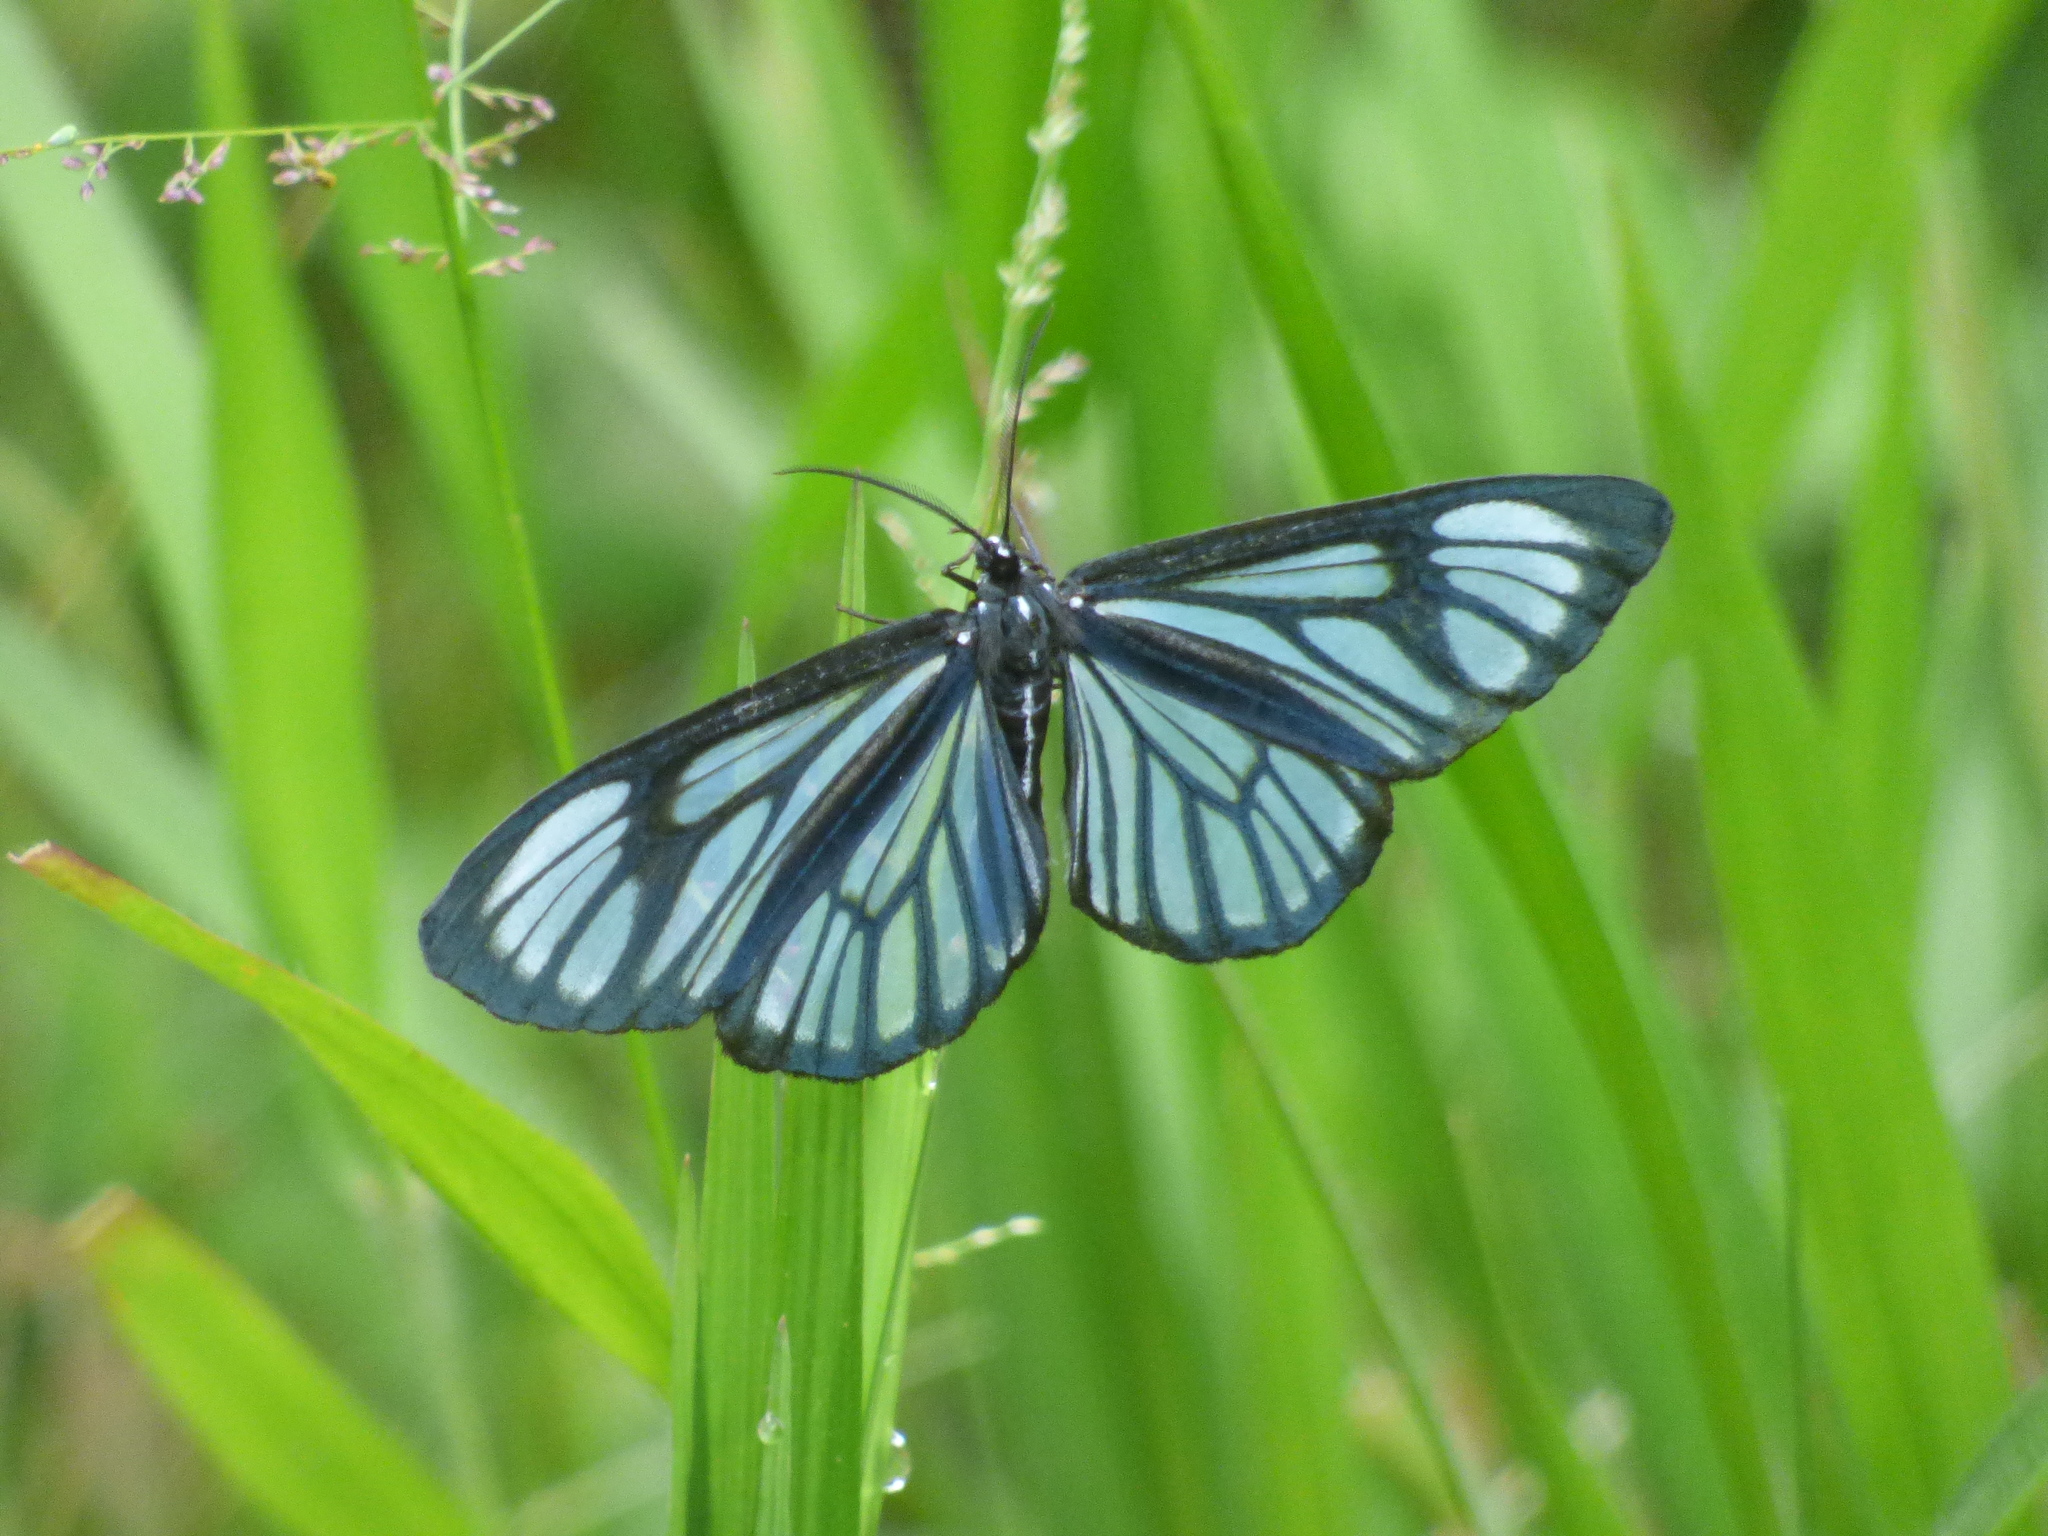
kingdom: Animalia
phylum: Arthropoda
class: Insecta
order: Lepidoptera
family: Geometridae
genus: Gonora
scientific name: Gonora hyelosioides
